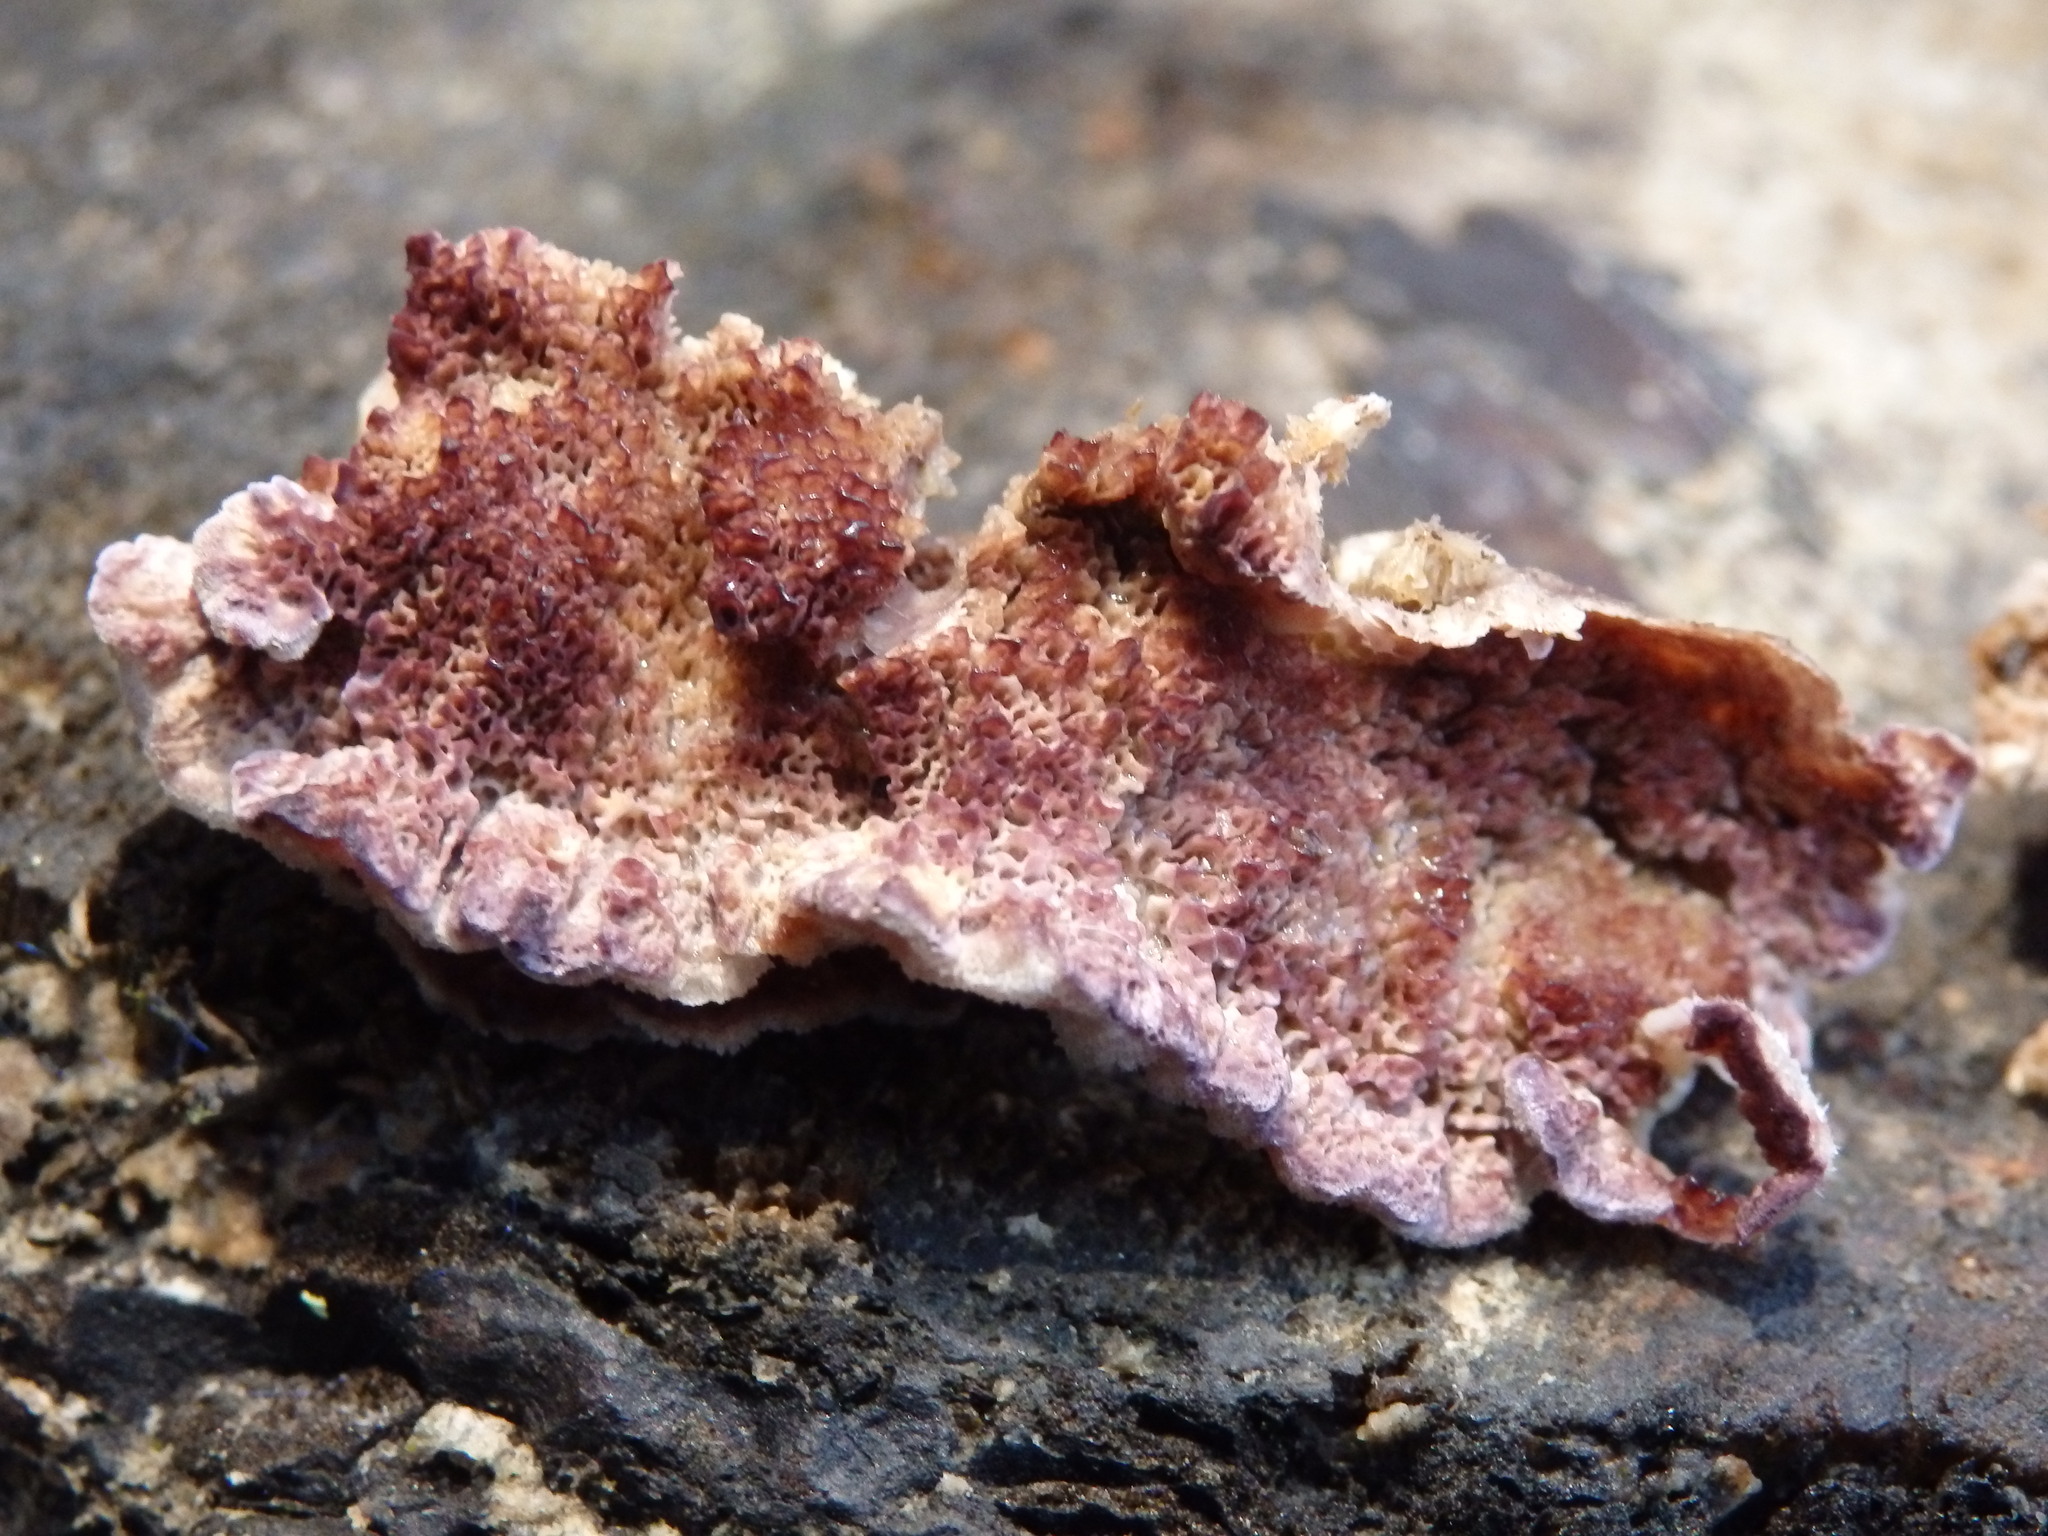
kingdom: Fungi
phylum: Basidiomycota
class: Agaricomycetes
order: Hymenochaetales
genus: Trichaptum
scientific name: Trichaptum abietinum
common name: Purplepore bracket
